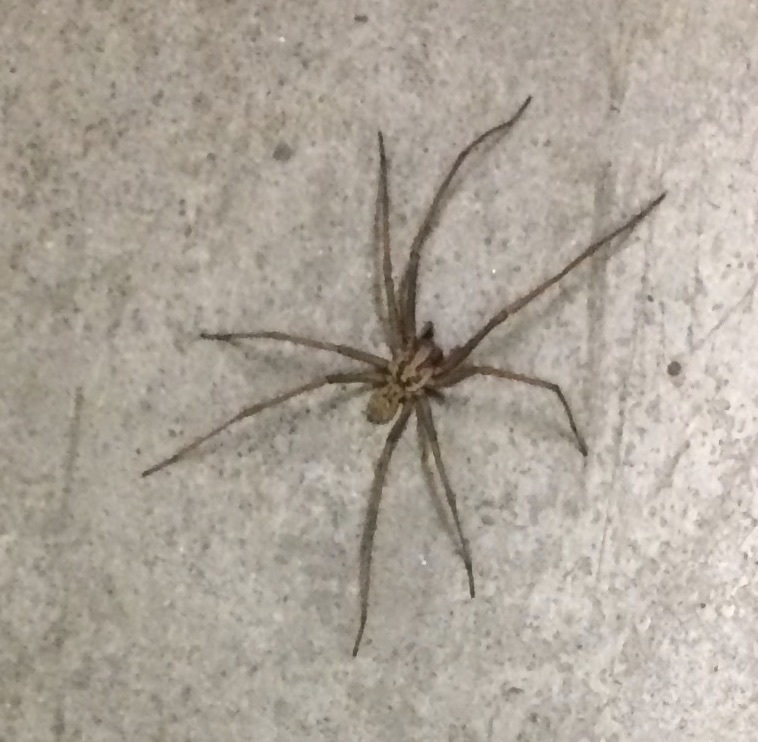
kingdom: Animalia
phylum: Arthropoda
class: Arachnida
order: Araneae
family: Agelenidae
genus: Eratigena
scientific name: Eratigena duellica
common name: Giant house spider
